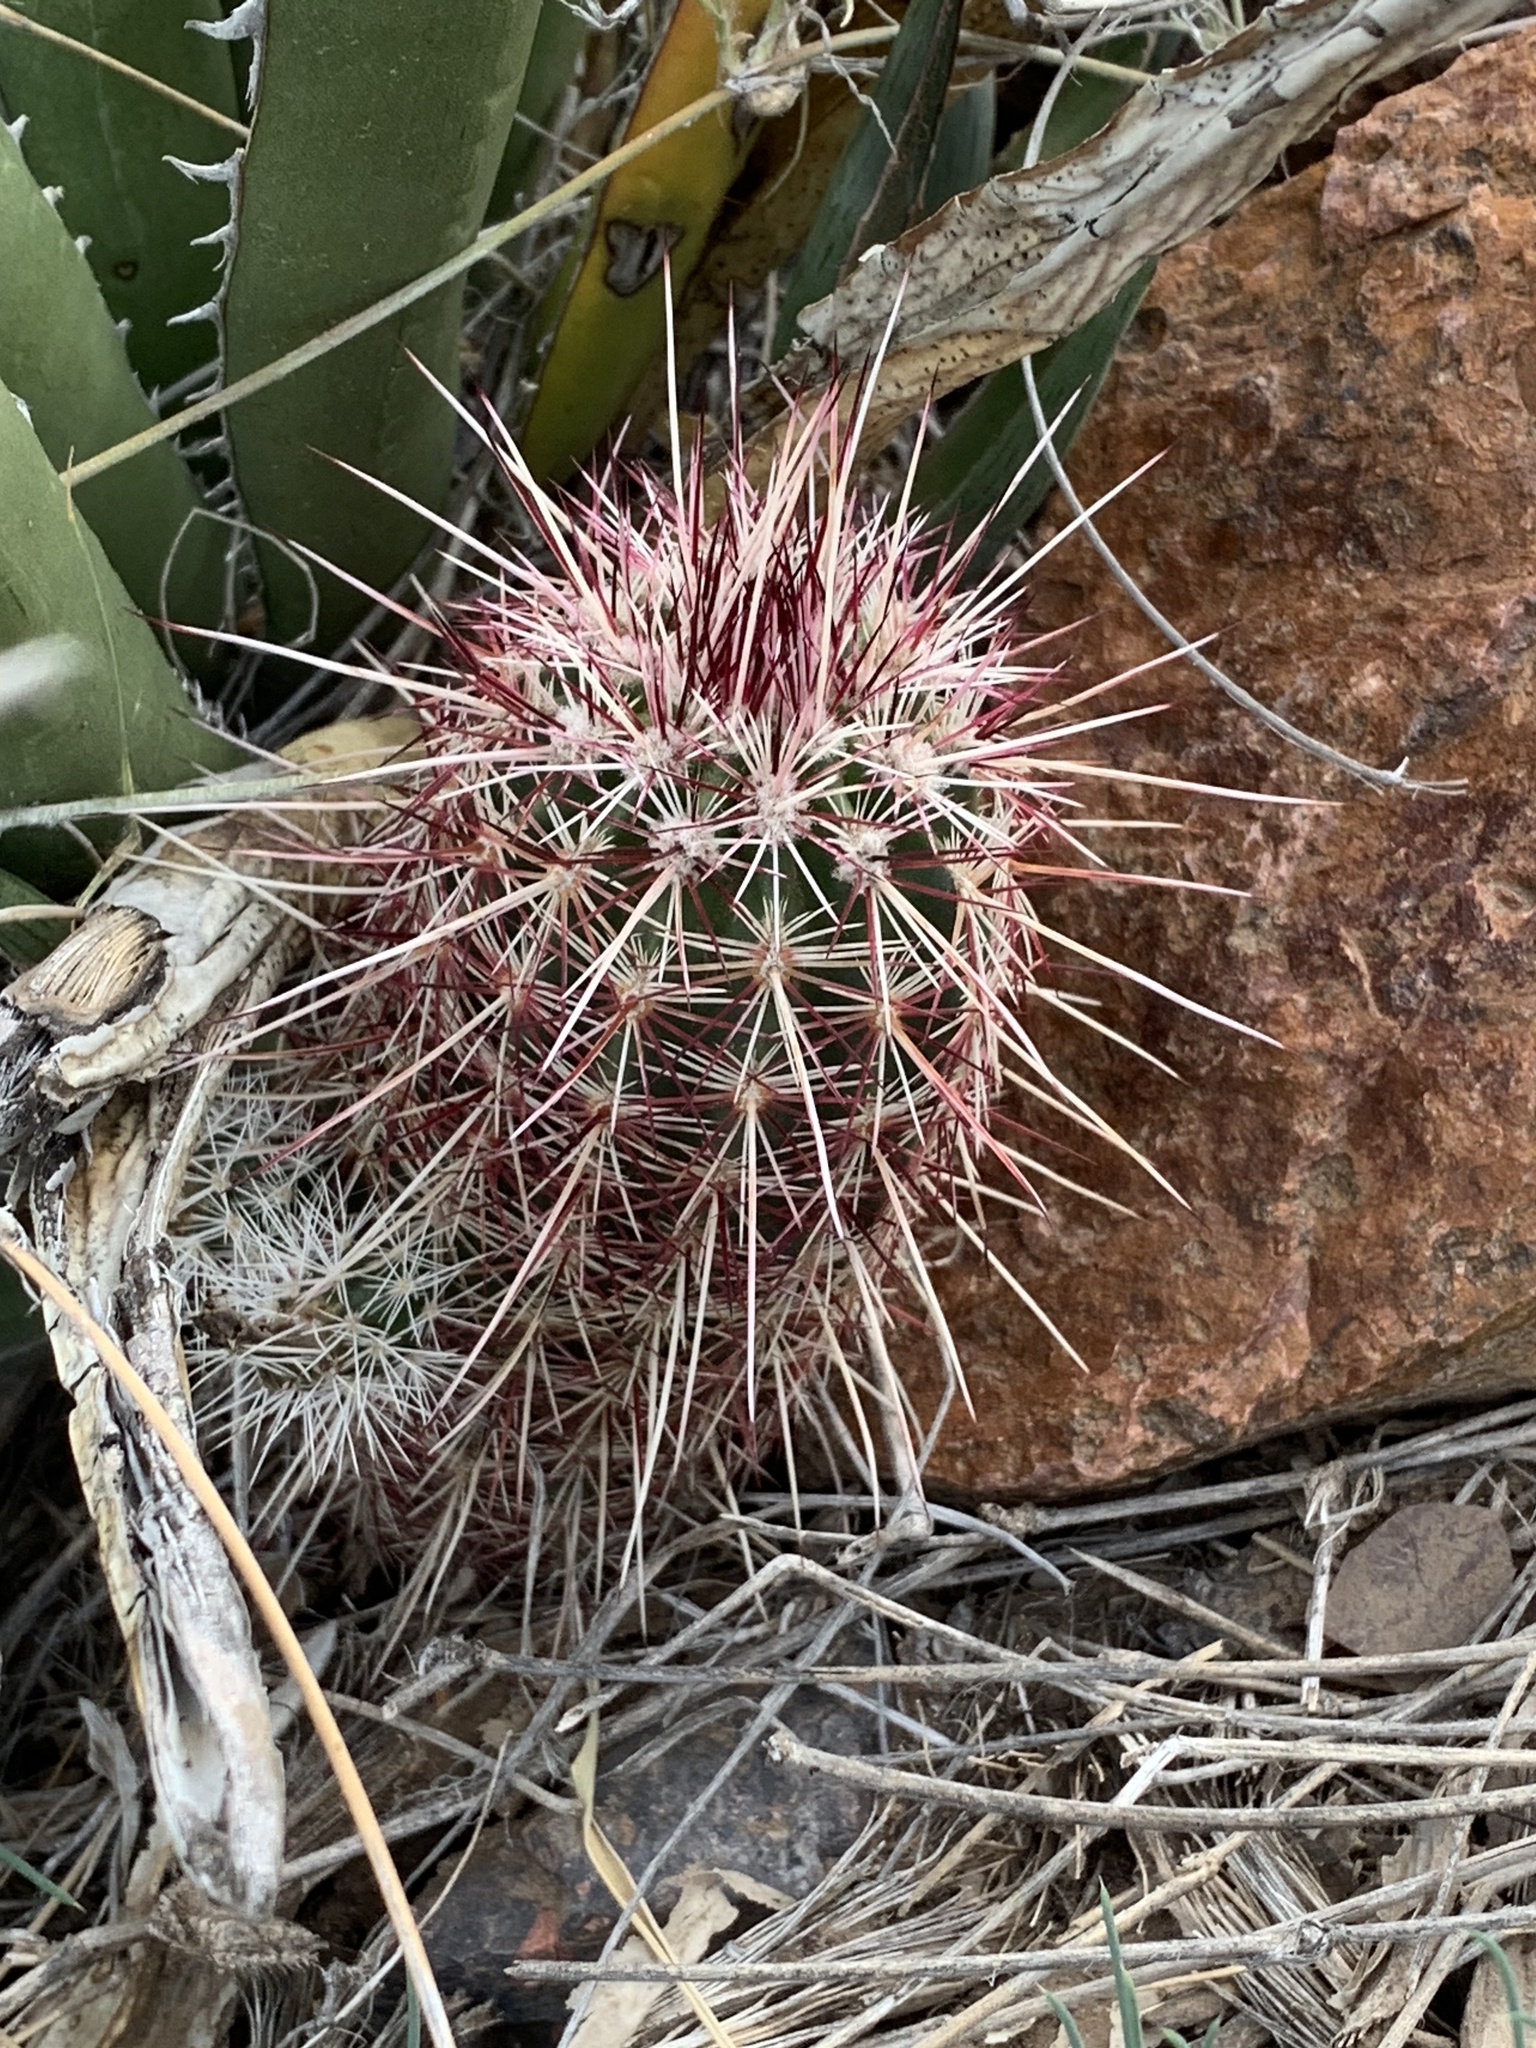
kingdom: Plantae
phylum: Tracheophyta
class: Magnoliopsida
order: Caryophyllales
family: Cactaceae
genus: Echinocereus
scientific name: Echinocereus viridiflorus
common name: Nylon hedgehog cactus
